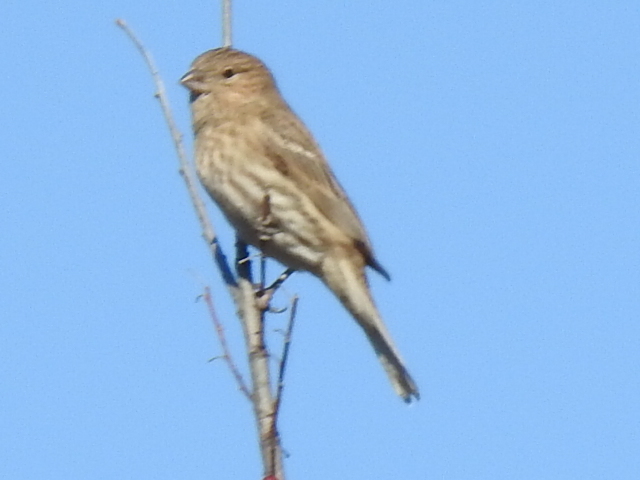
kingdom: Animalia
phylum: Chordata
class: Aves
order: Passeriformes
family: Fringillidae
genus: Haemorhous
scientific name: Haemorhous mexicanus
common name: House finch
